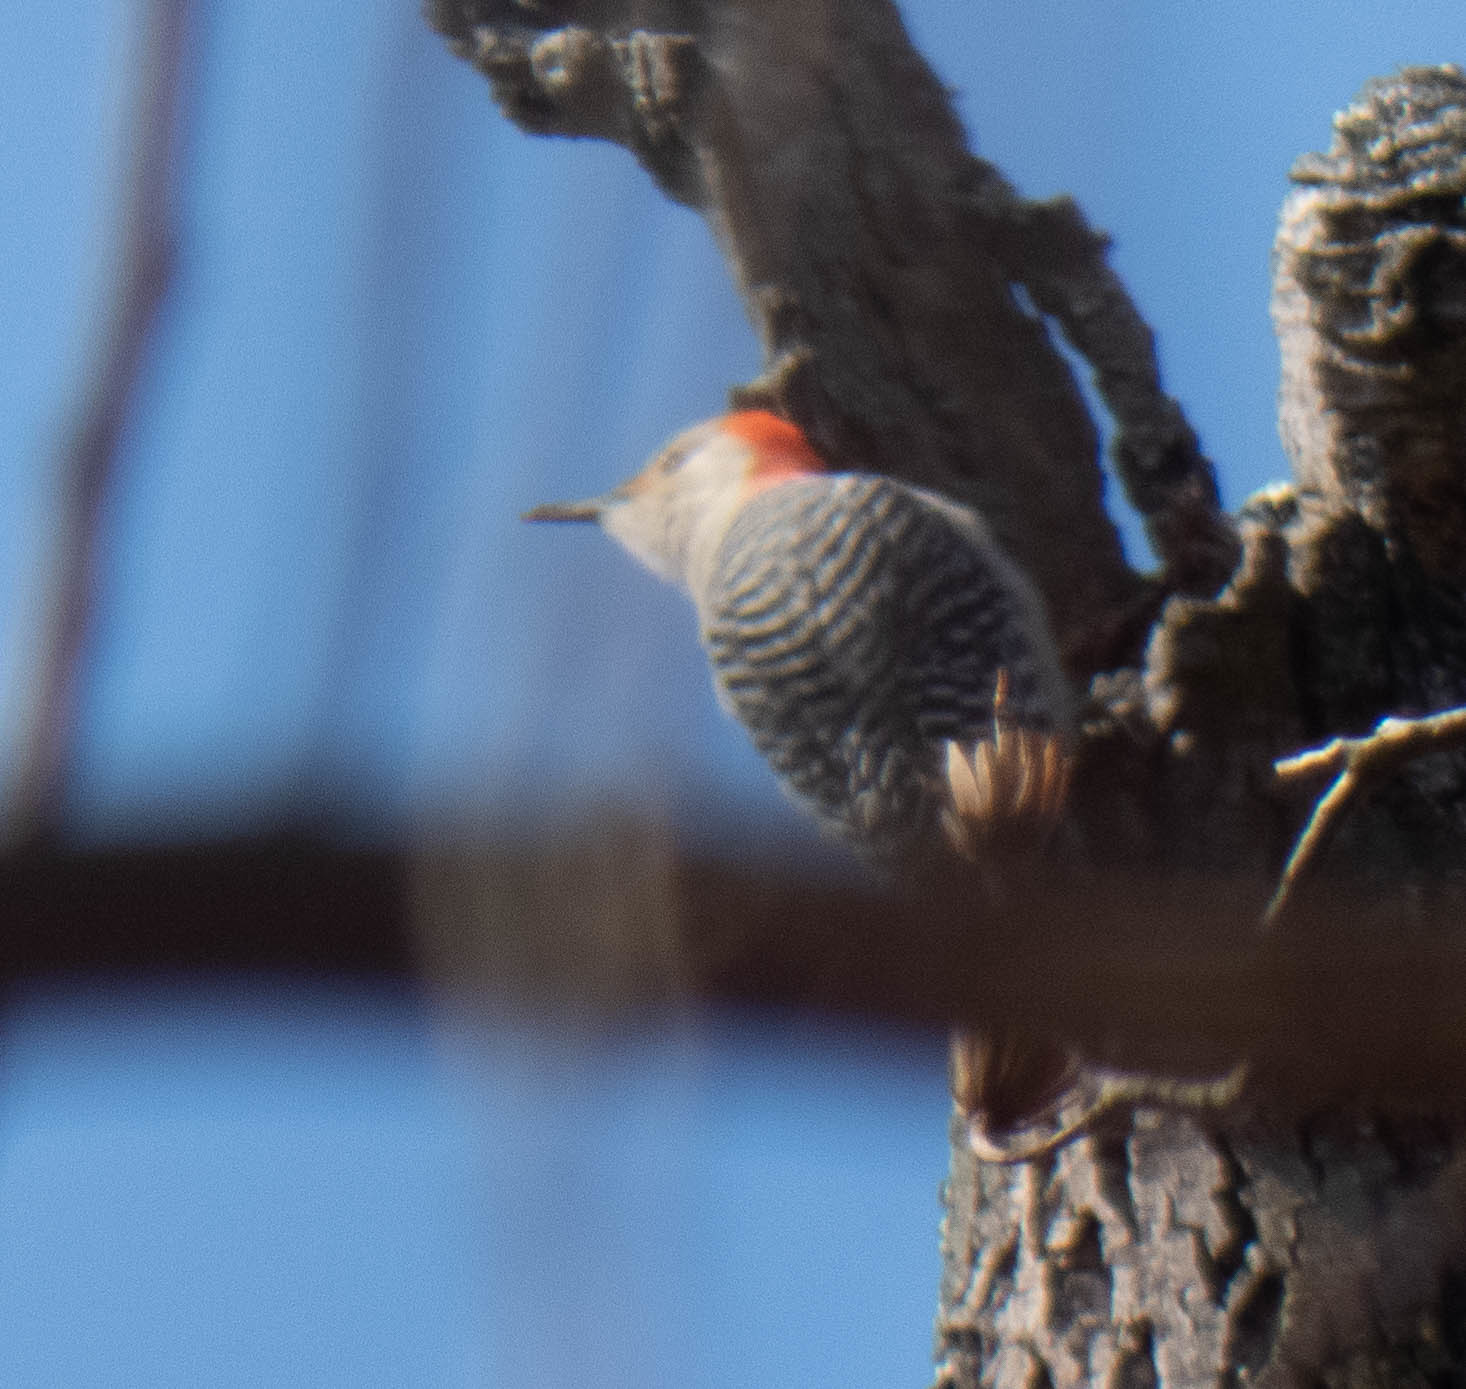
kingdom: Animalia
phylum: Chordata
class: Aves
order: Piciformes
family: Picidae
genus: Melanerpes
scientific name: Melanerpes carolinus
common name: Red-bellied woodpecker
